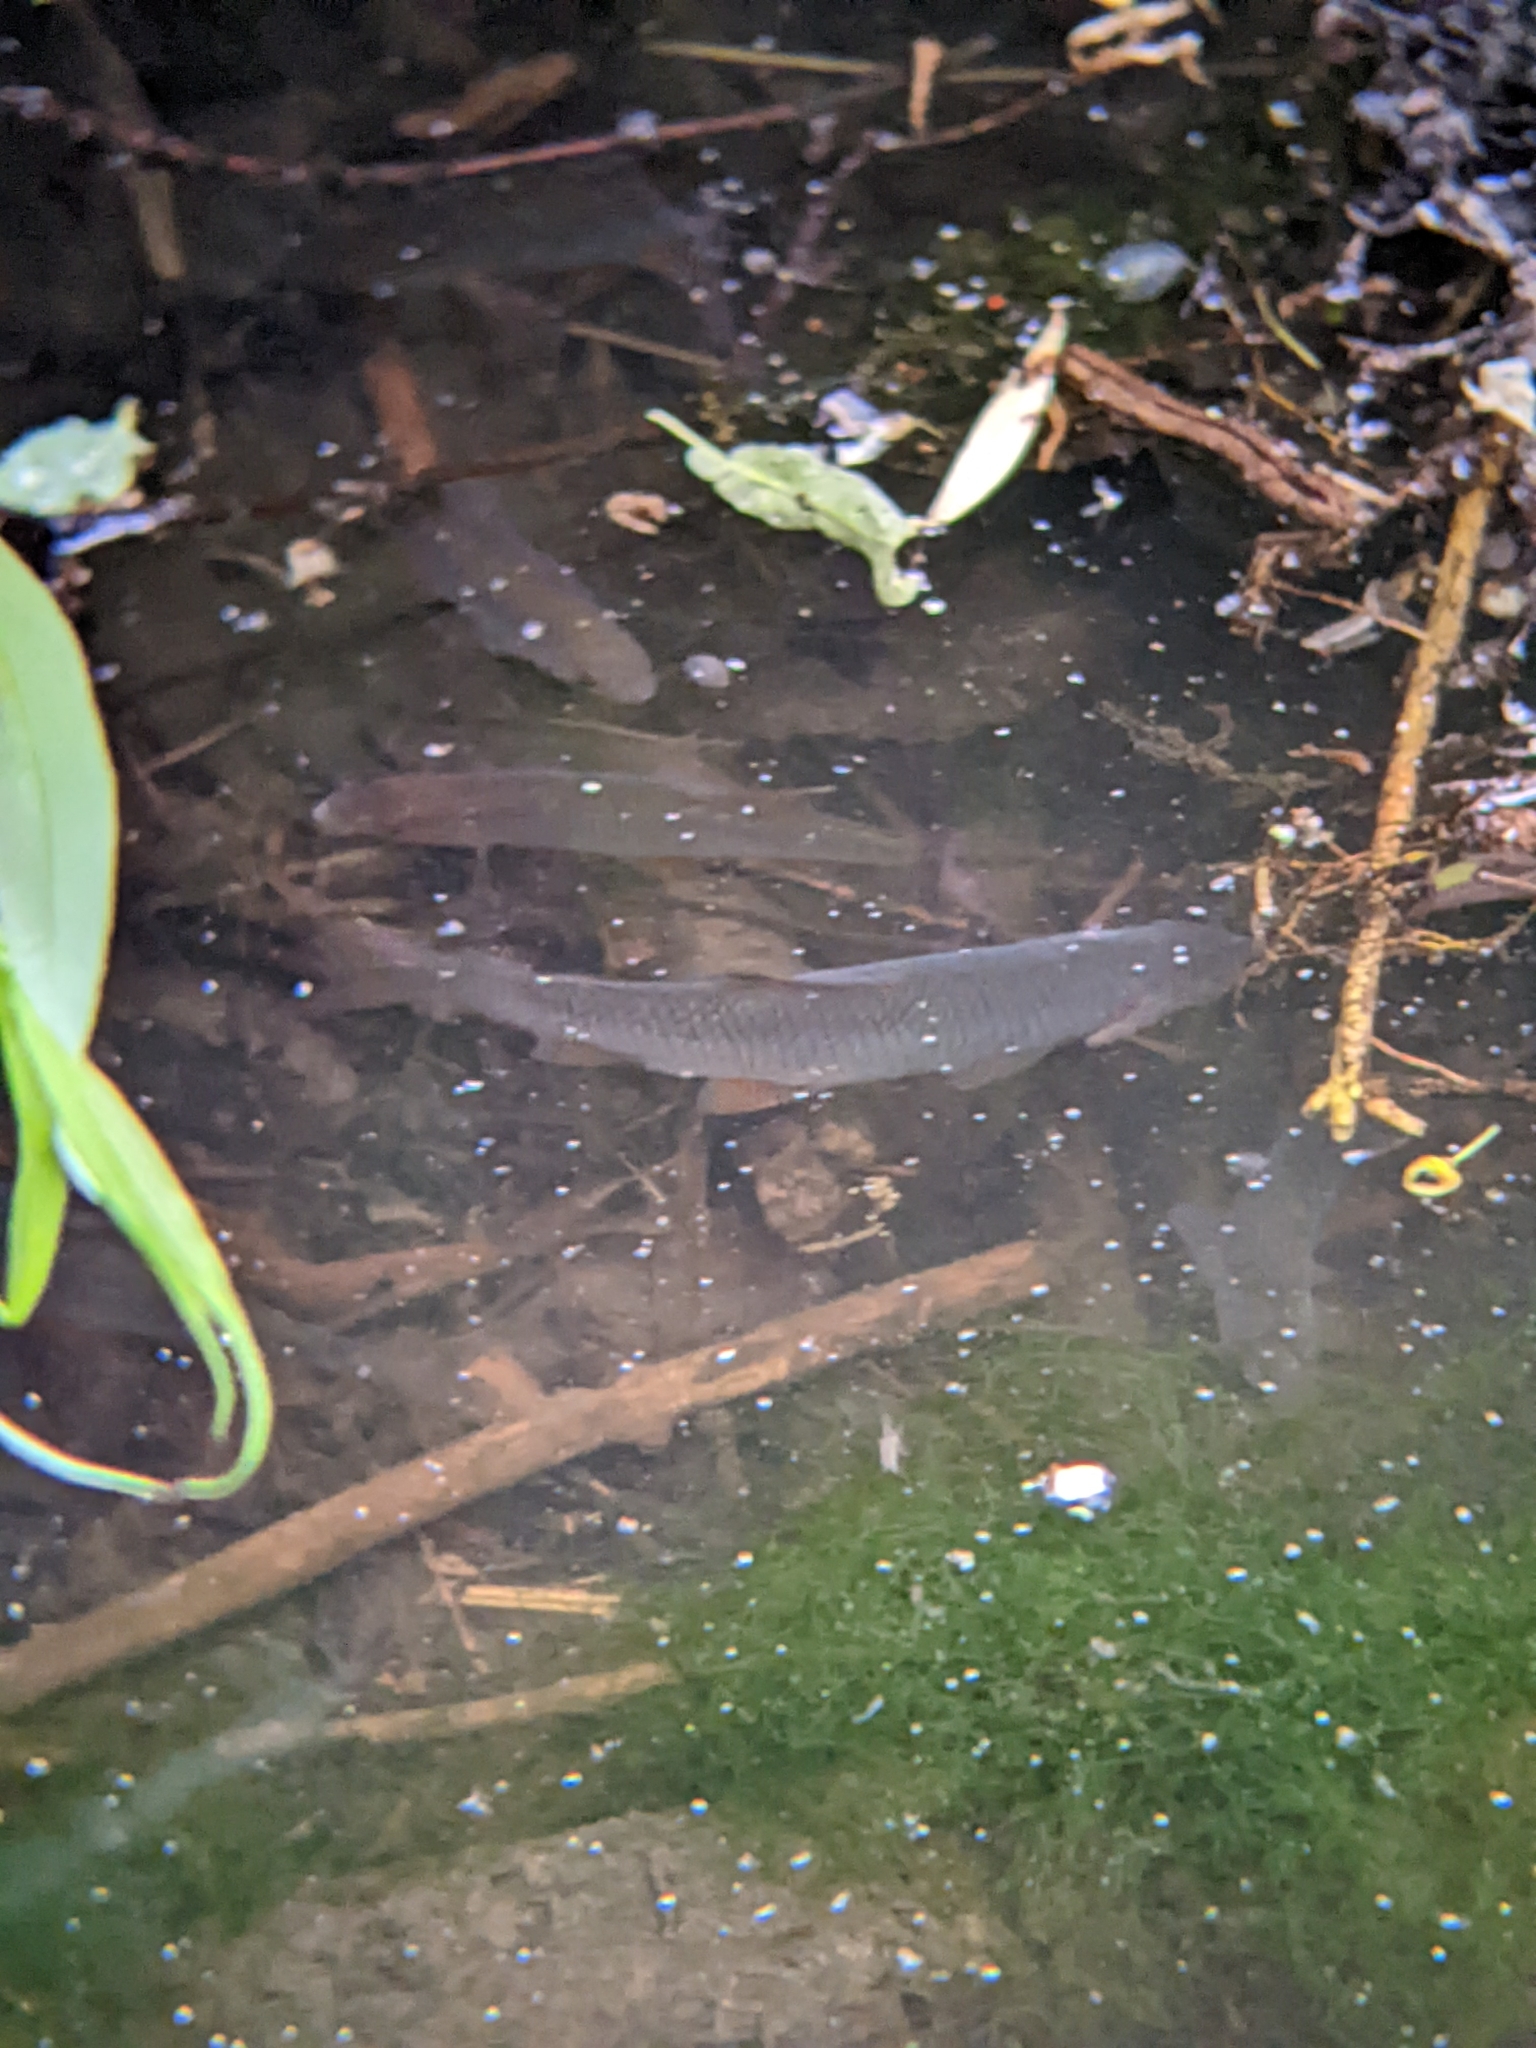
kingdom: Animalia
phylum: Chordata
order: Cypriniformes
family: Cyprinidae
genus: Rutilus
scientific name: Rutilus rutilus
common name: Roach
